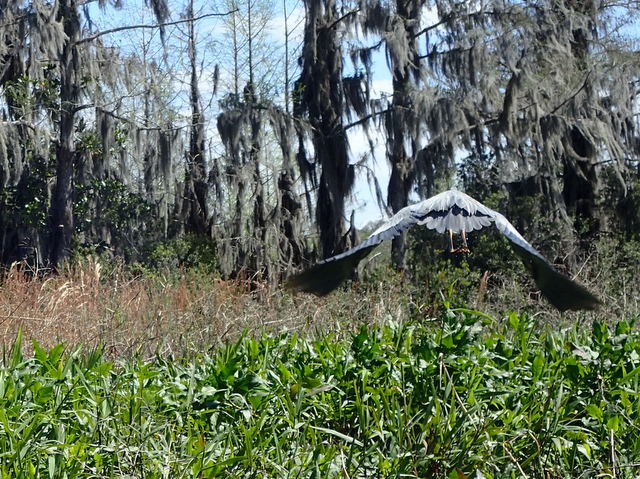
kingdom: Animalia
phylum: Chordata
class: Aves
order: Pelecaniformes
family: Ardeidae
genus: Ardea
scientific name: Ardea herodias
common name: Great blue heron
